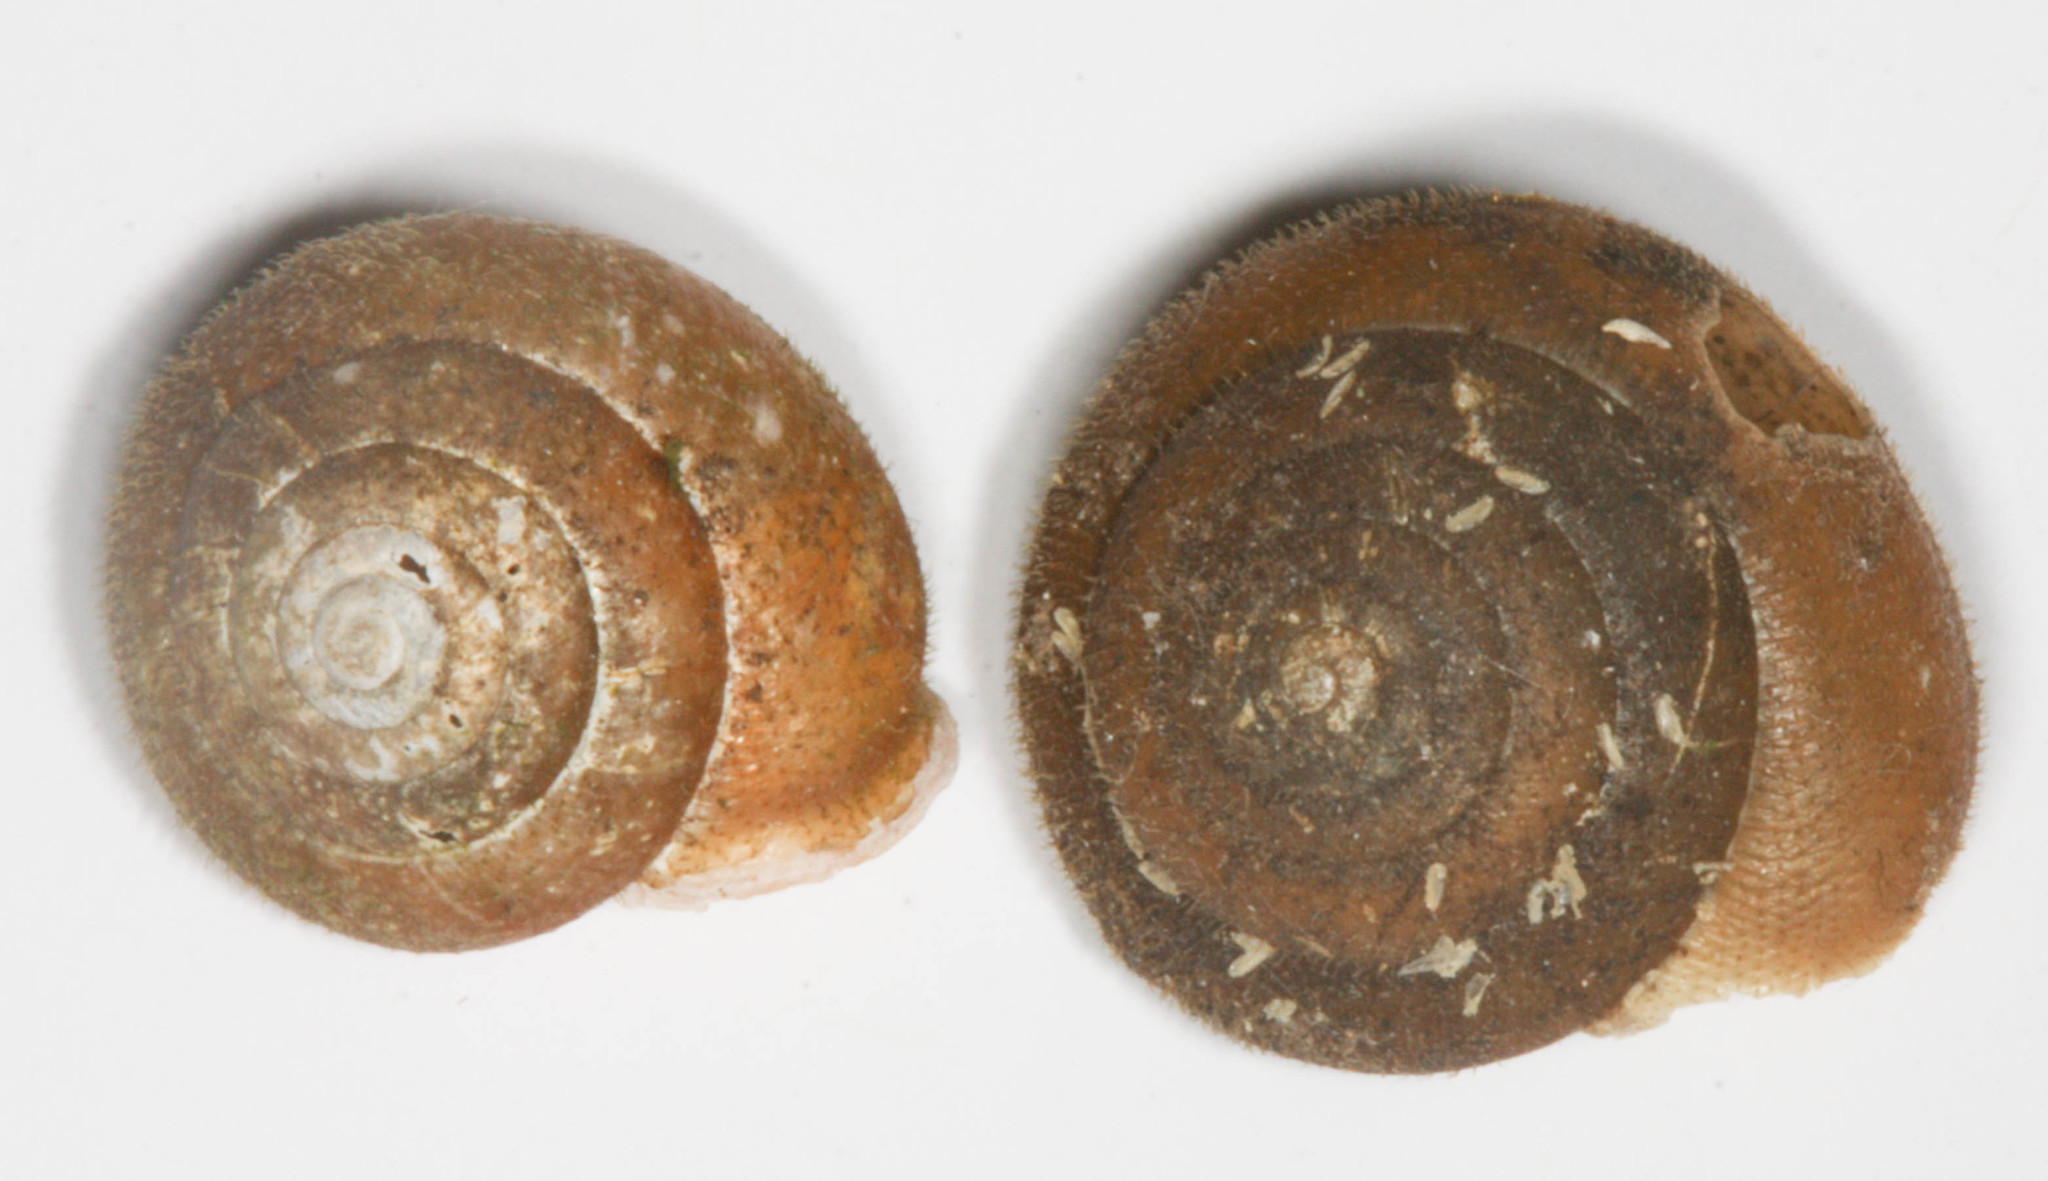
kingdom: Animalia
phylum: Mollusca
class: Gastropoda
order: Stylommatophora
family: Polygyridae
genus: Vespericola
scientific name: Vespericola columbianus
